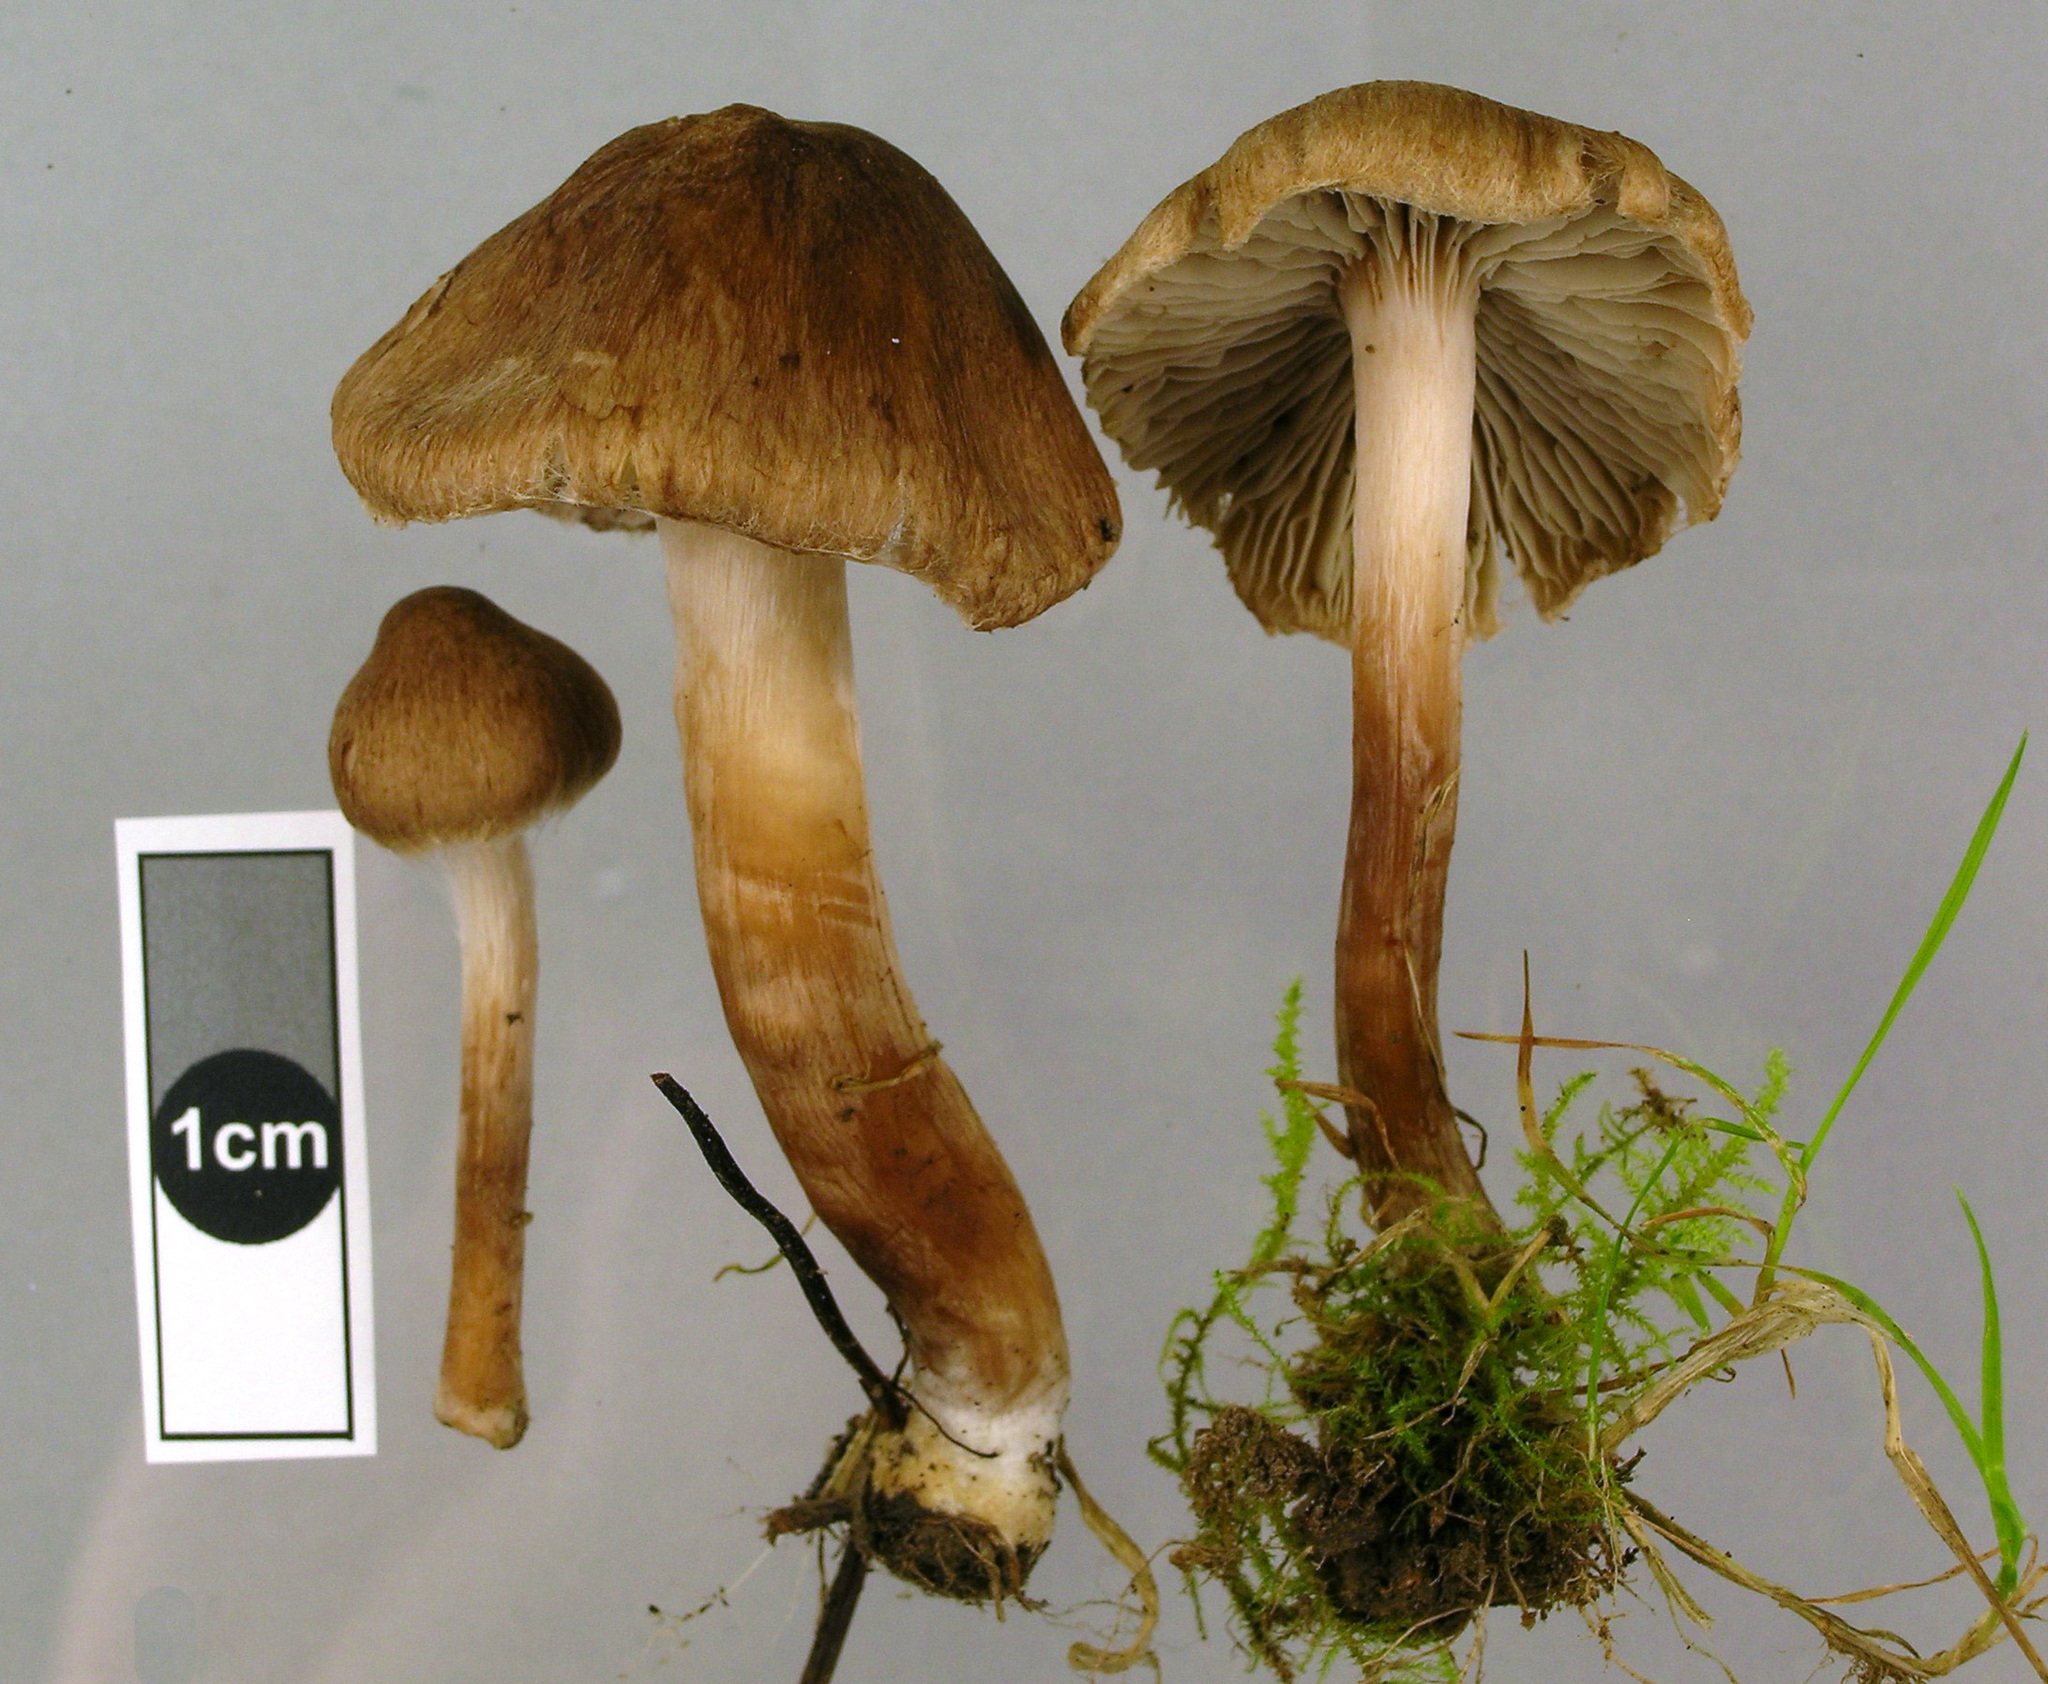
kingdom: Fungi
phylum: Basidiomycota
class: Agaricomycetes
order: Agaricales
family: Inocybaceae
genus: Inocybe
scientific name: Inocybe curvipes
